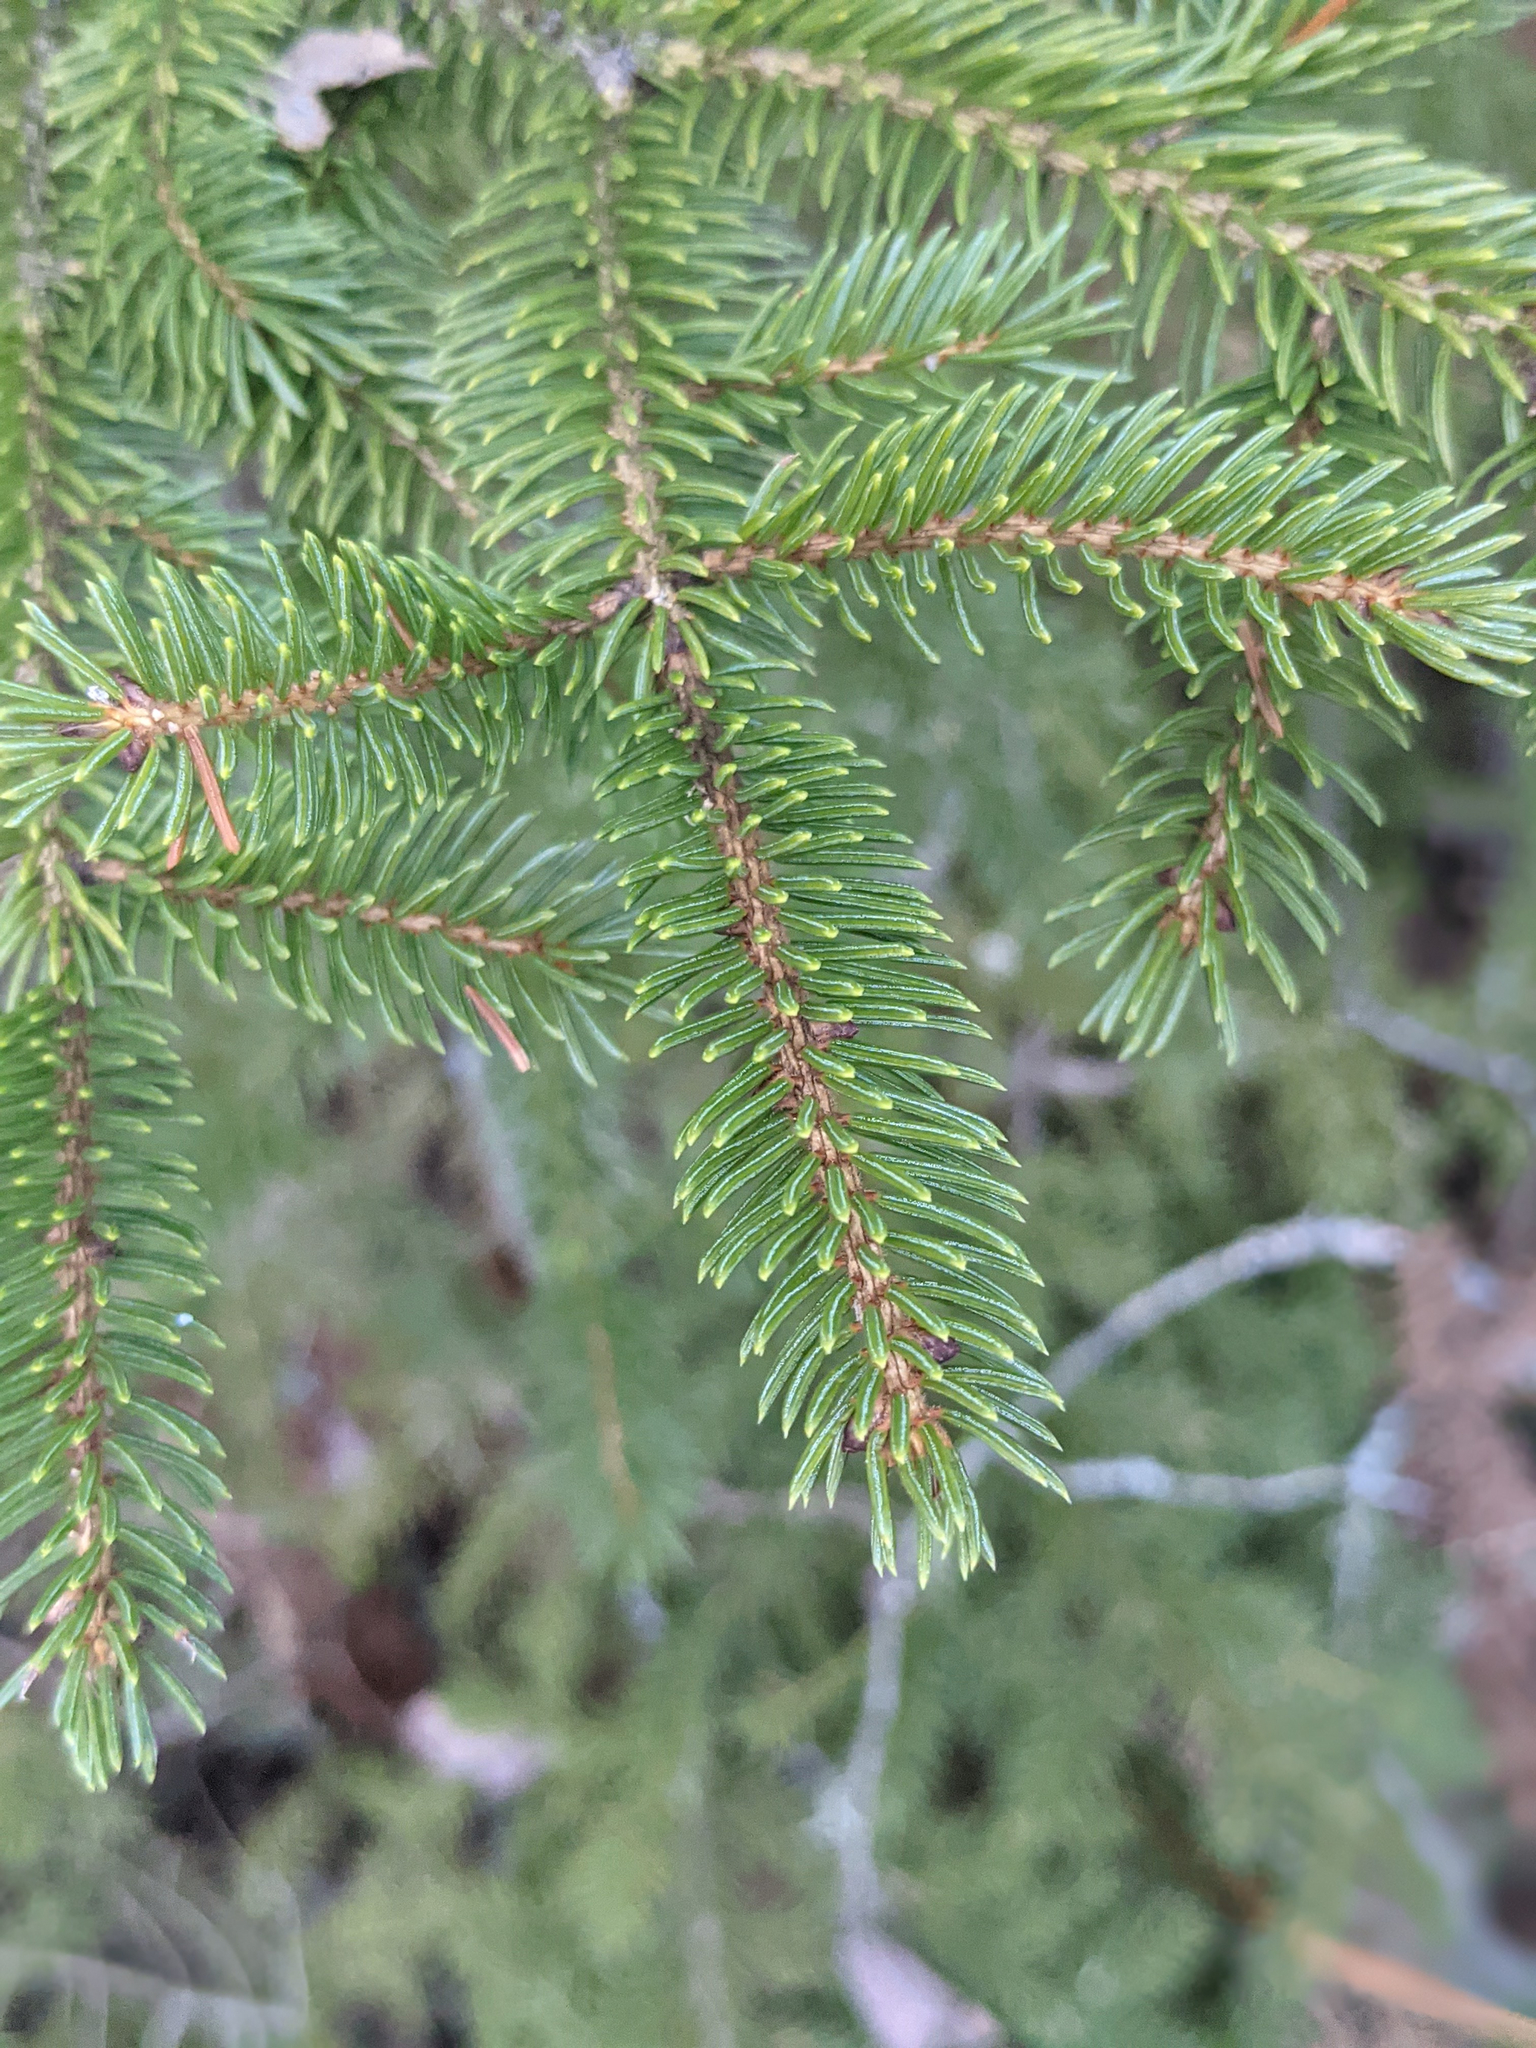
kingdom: Plantae
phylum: Tracheophyta
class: Pinopsida
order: Pinales
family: Pinaceae
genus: Picea
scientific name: Picea rubens
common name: Red spruce
